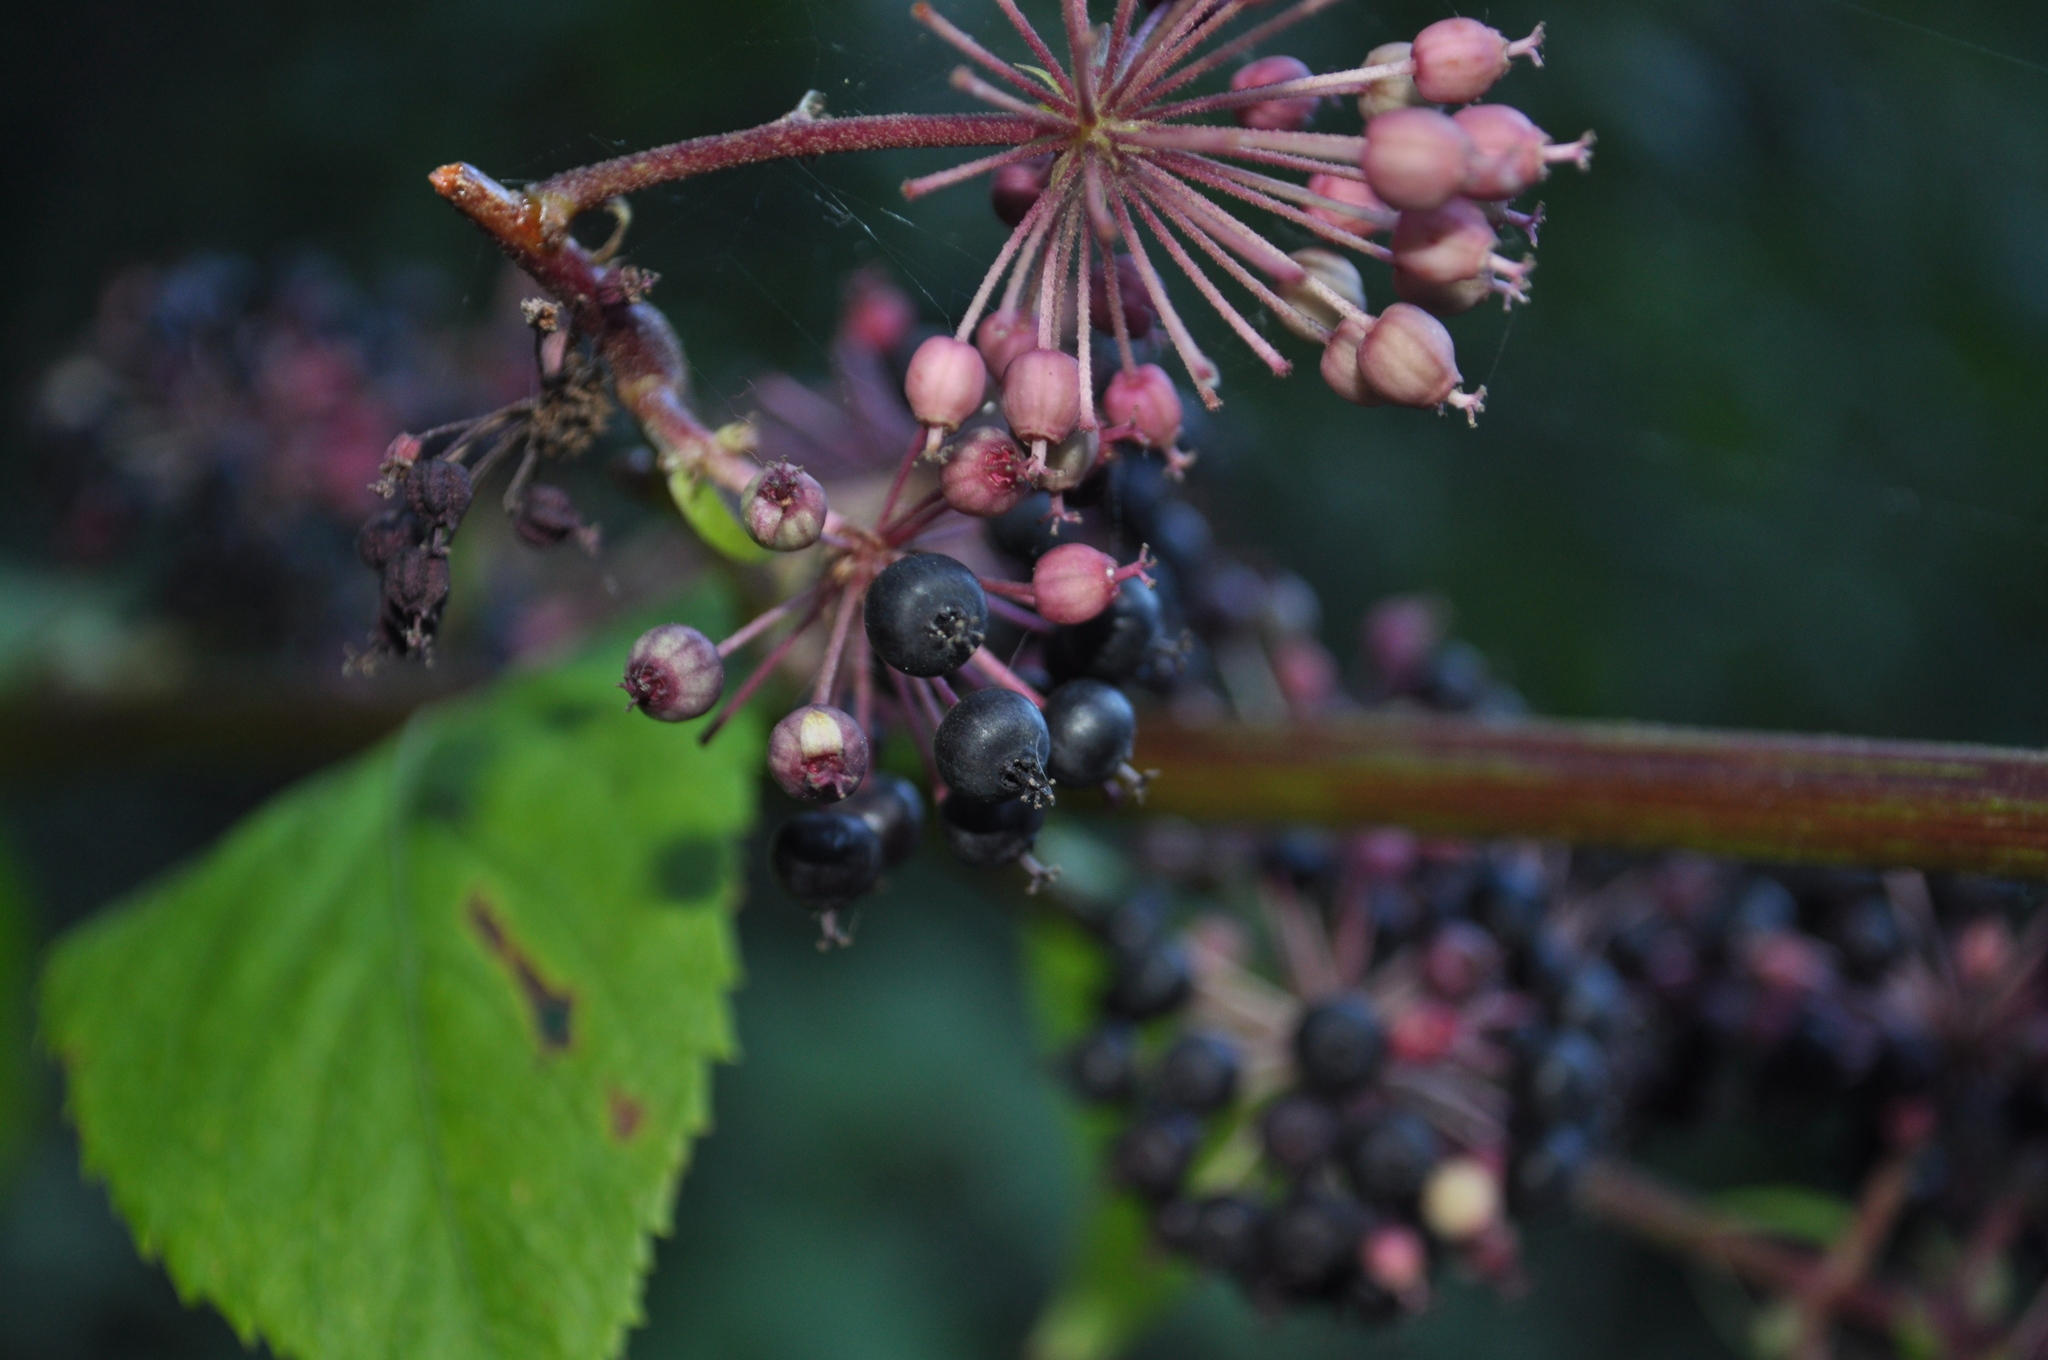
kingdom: Plantae
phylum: Tracheophyta
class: Magnoliopsida
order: Apiales
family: Araliaceae
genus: Aralia
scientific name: Aralia californica
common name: California-ginseng
